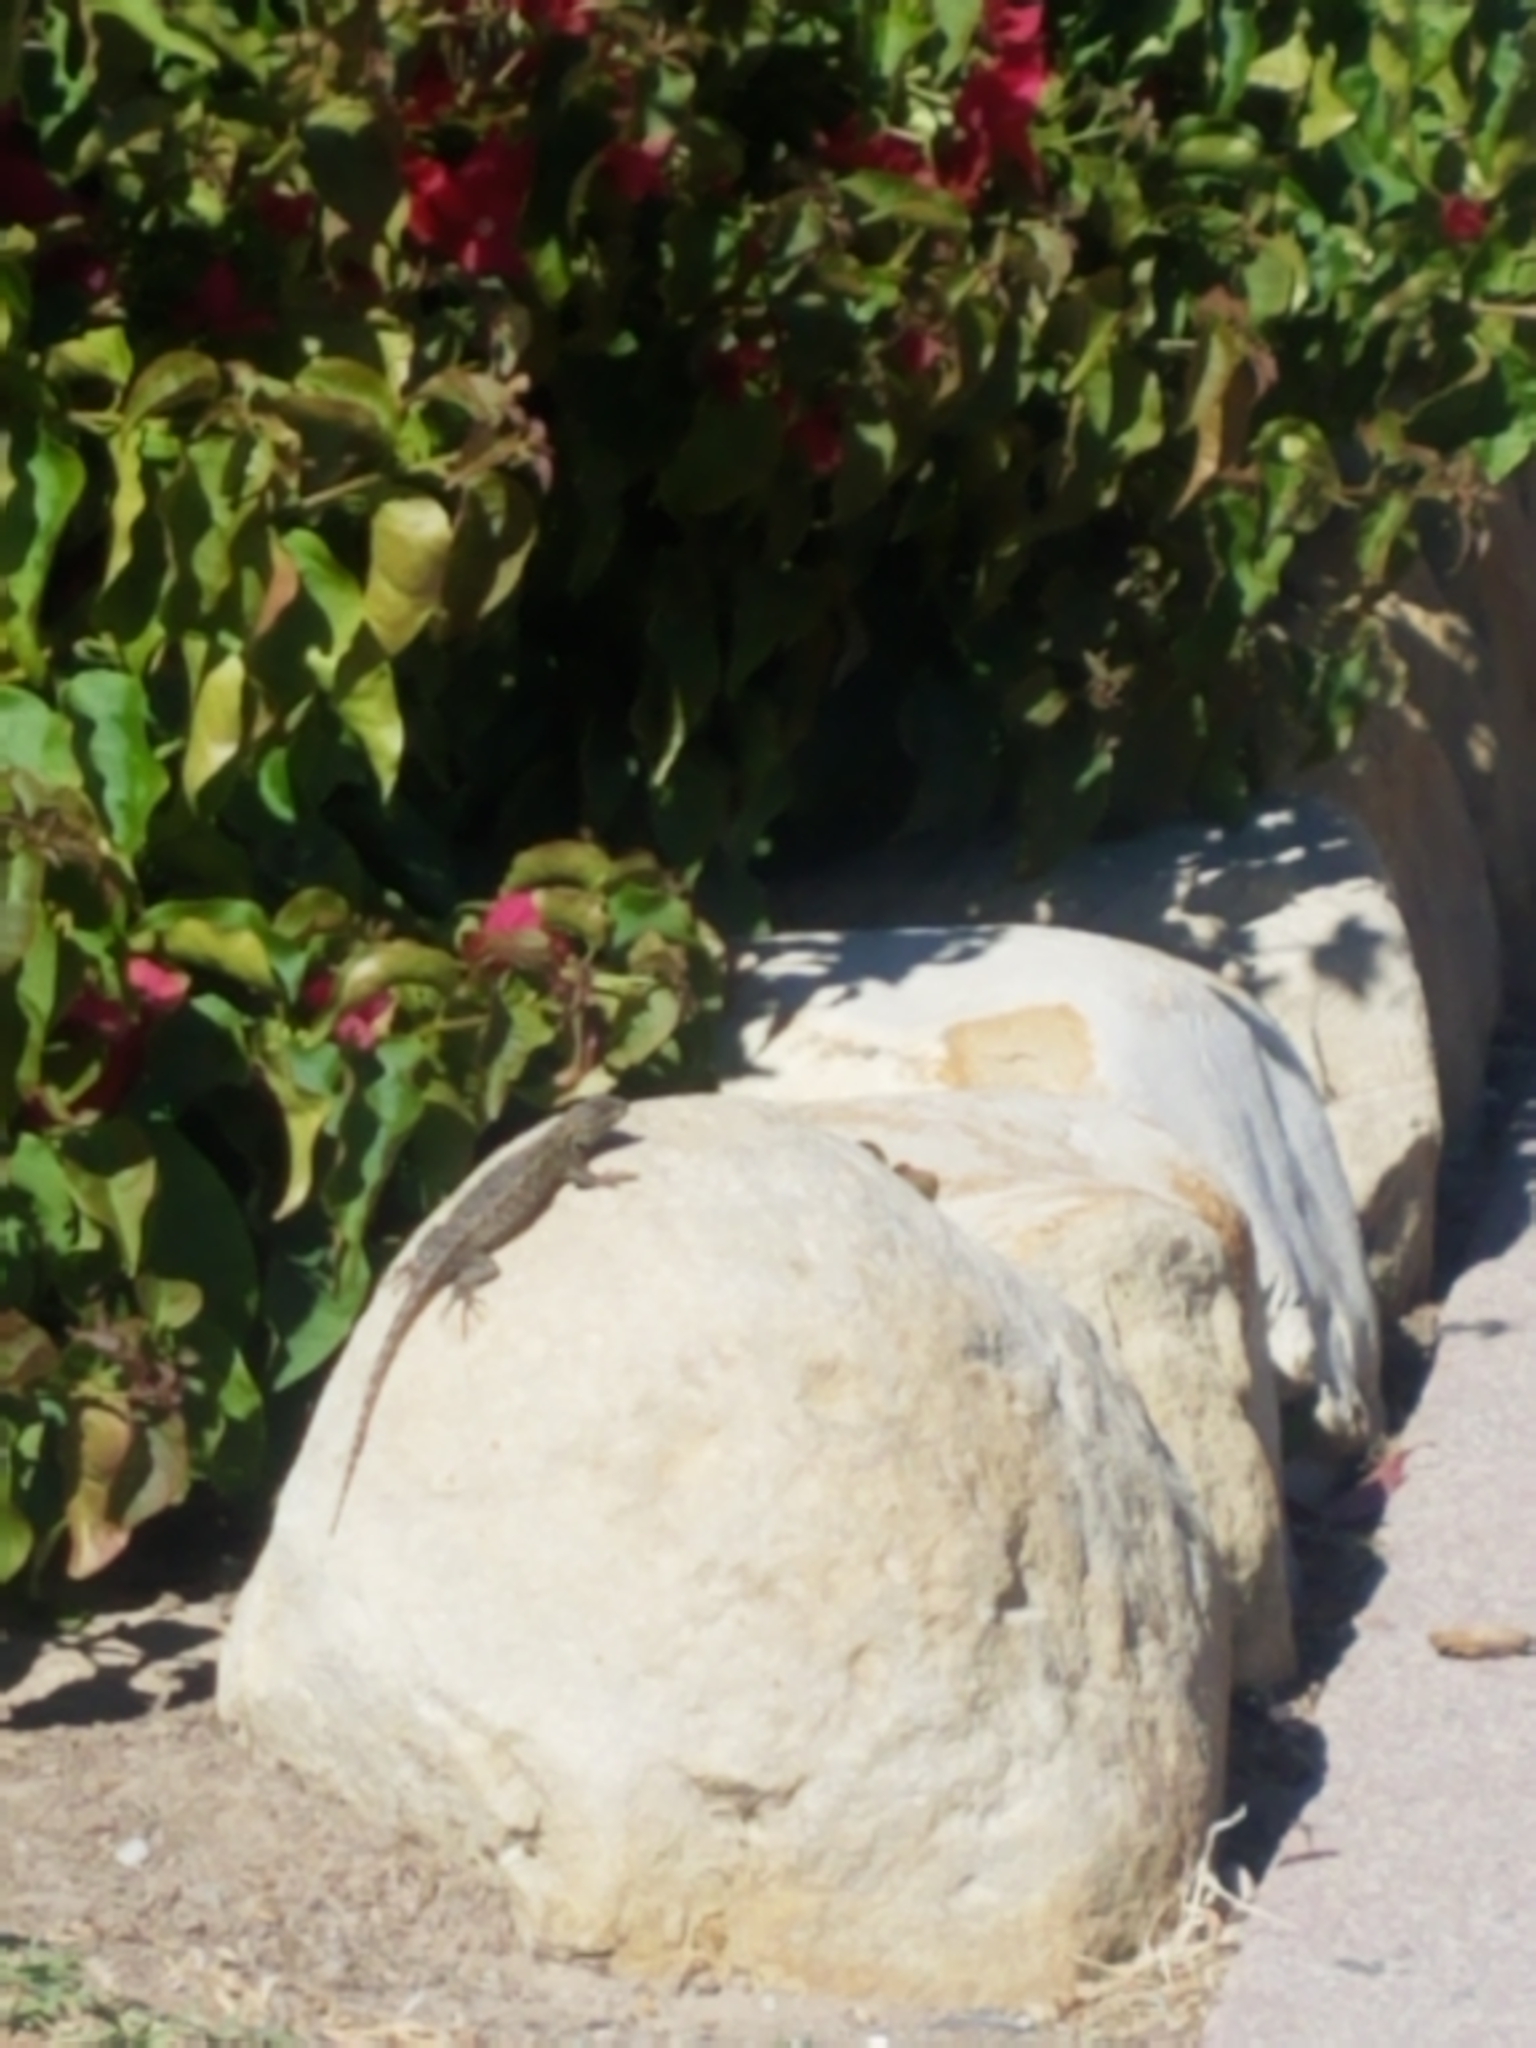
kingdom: Animalia
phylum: Chordata
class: Squamata
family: Phrynosomatidae
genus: Sceloporus
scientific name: Sceloporus occidentalis
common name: Western fence lizard
